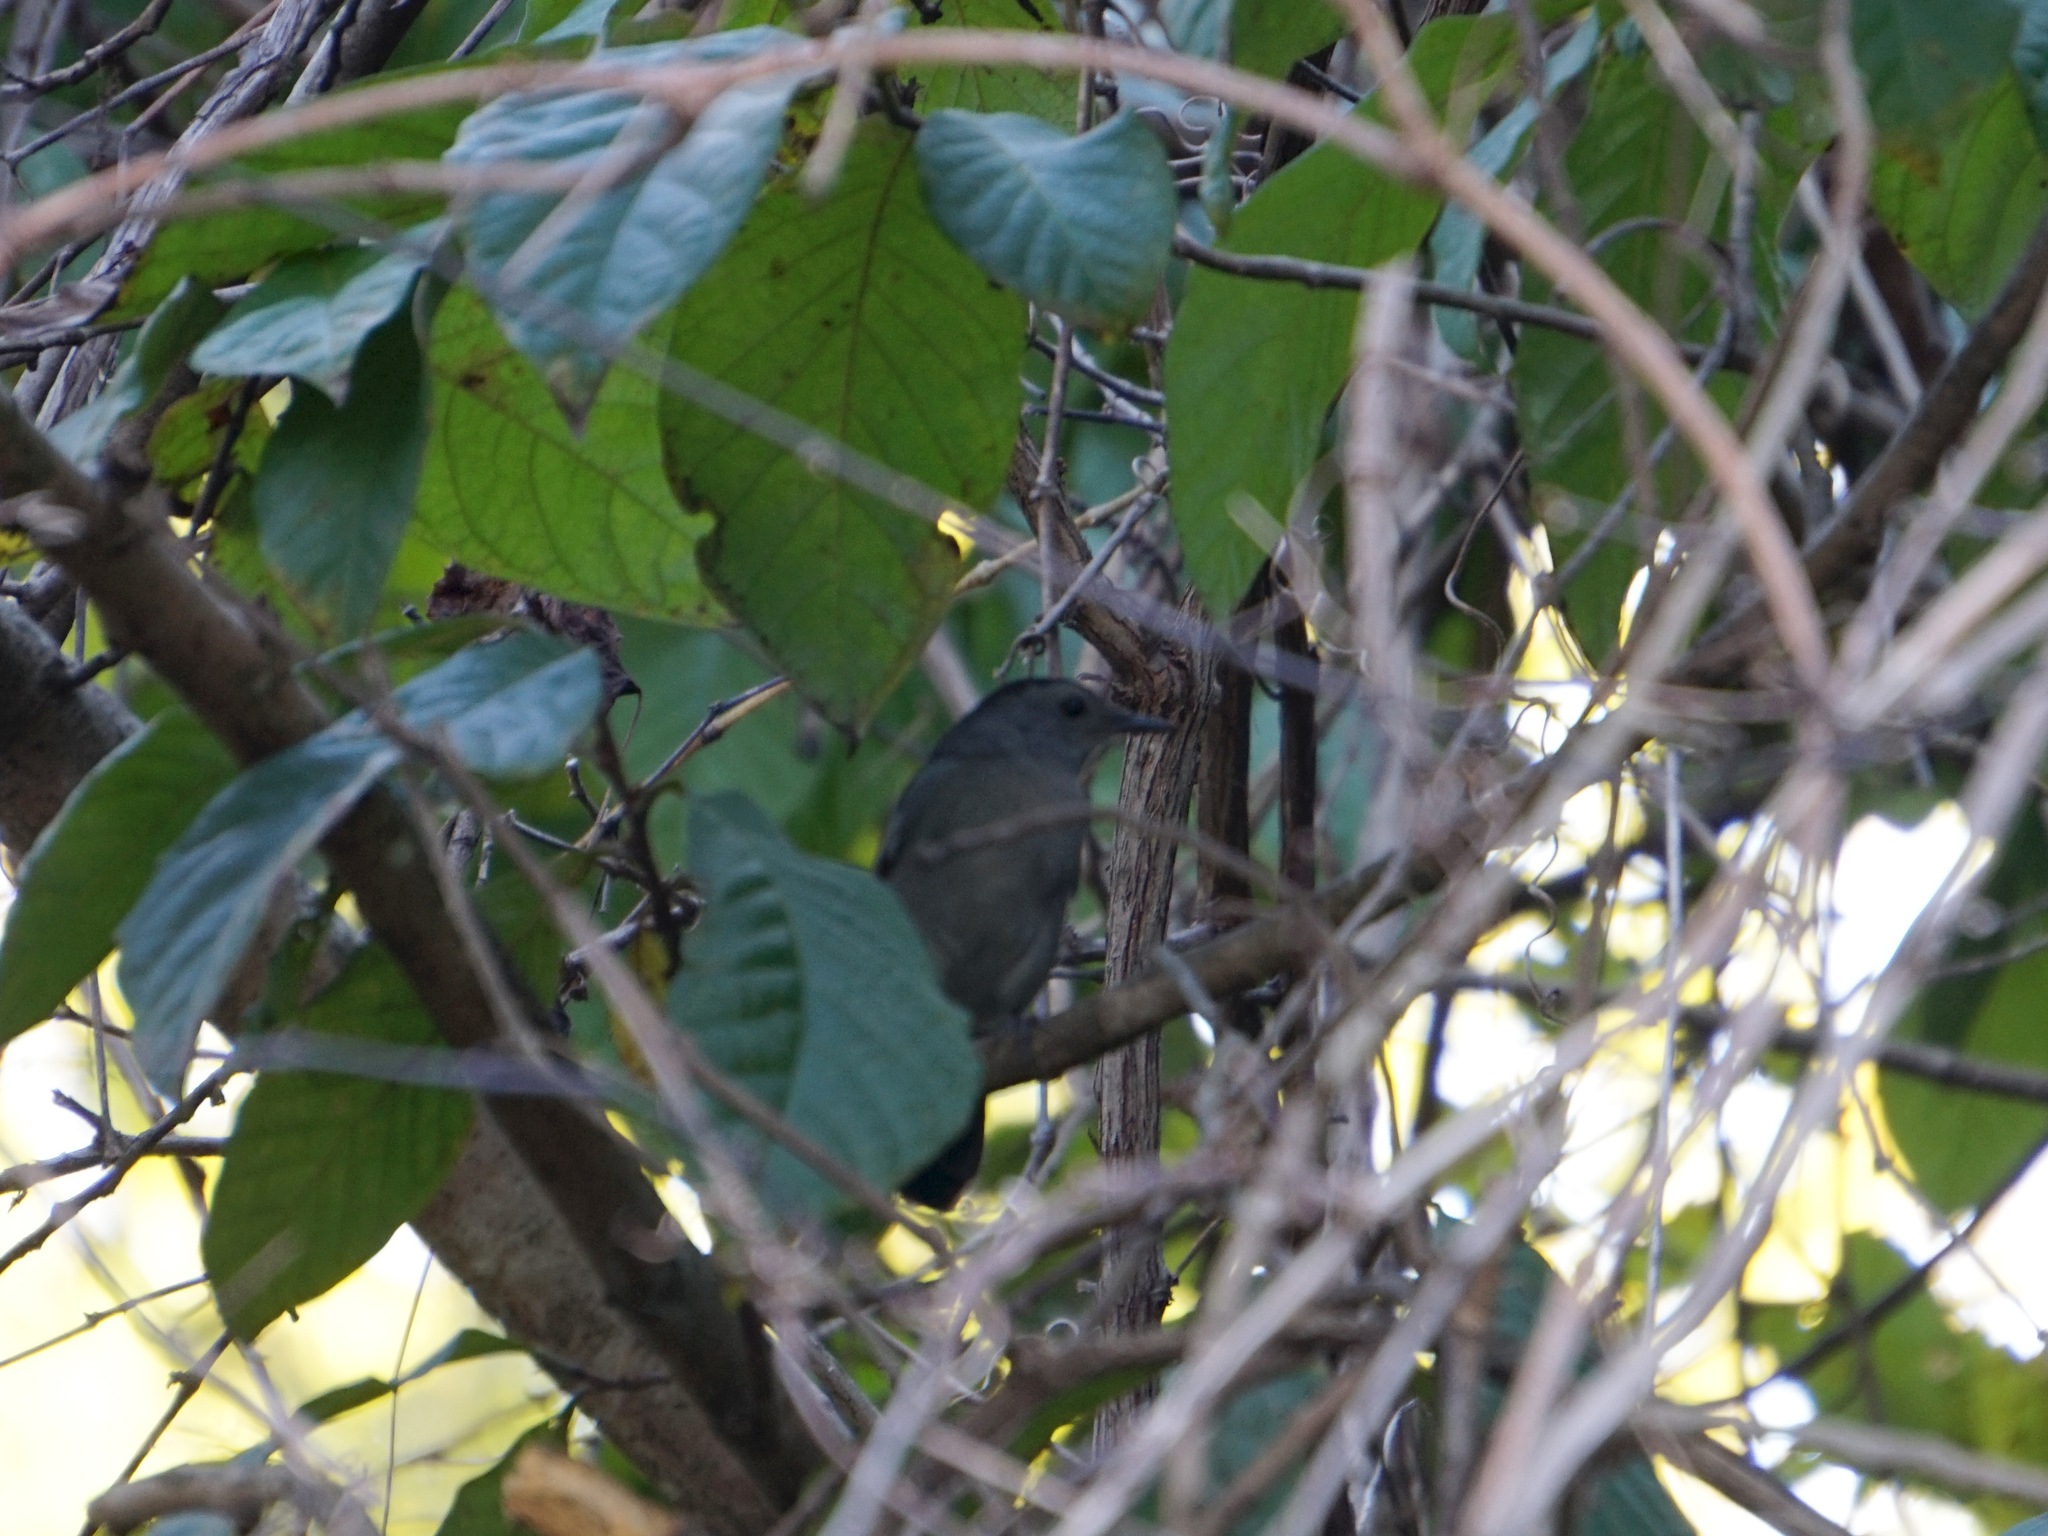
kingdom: Animalia
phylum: Chordata
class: Aves
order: Passeriformes
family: Mimidae
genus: Dumetella
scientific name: Dumetella carolinensis
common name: Gray catbird
